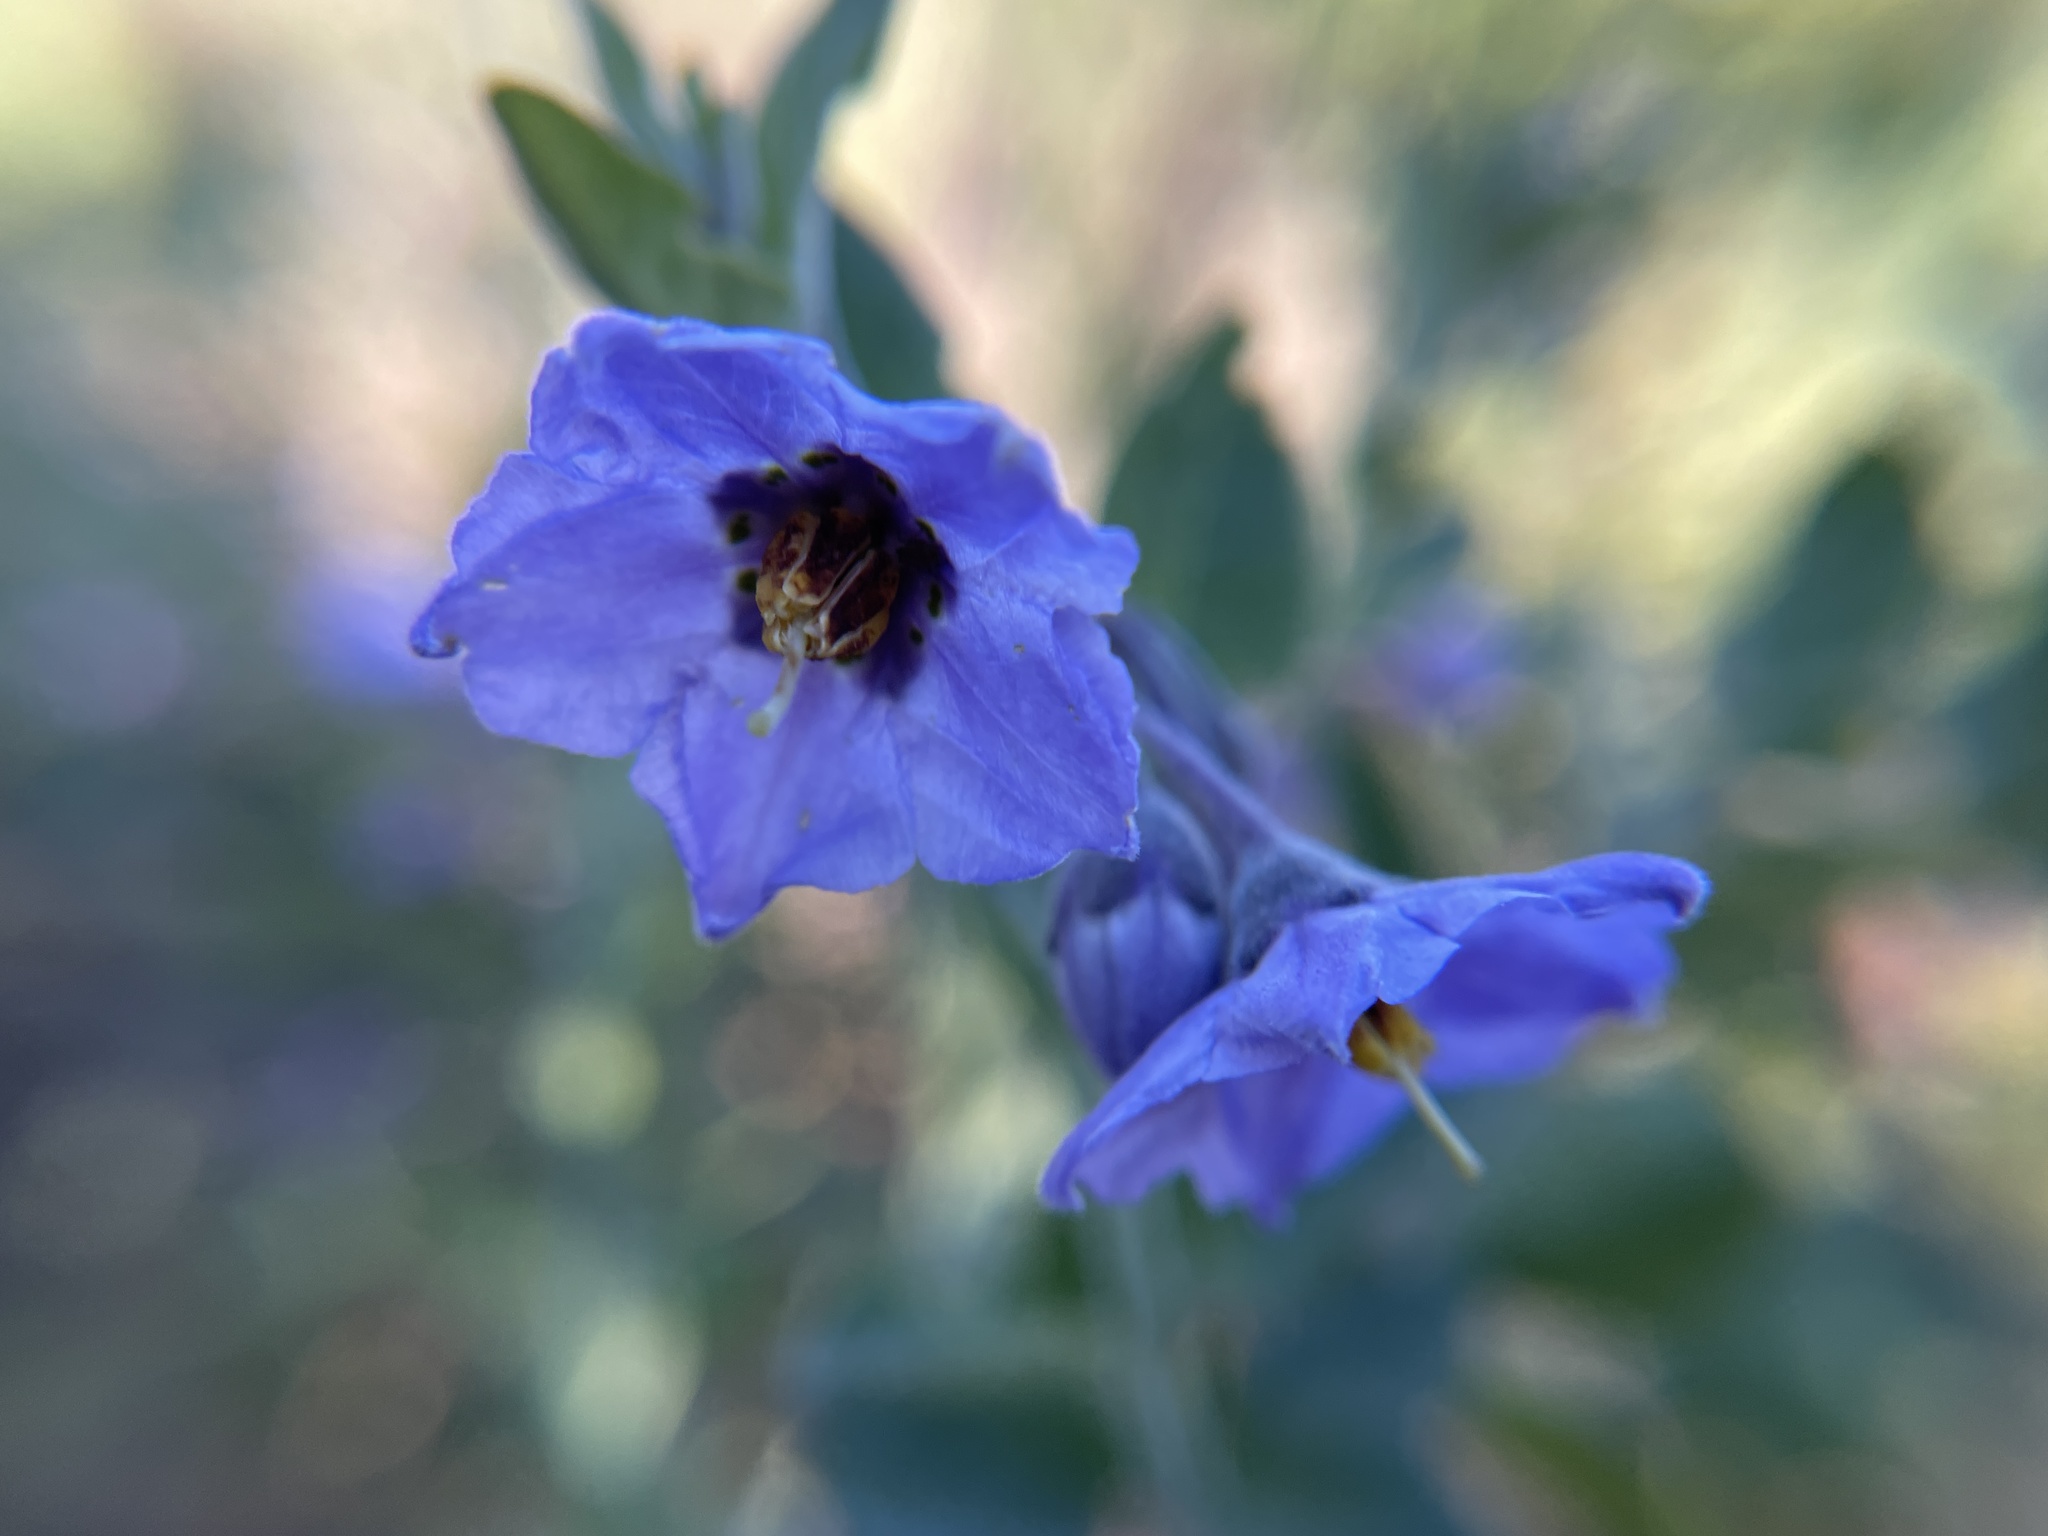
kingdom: Plantae
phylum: Tracheophyta
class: Magnoliopsida
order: Solanales
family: Solanaceae
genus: Solanum
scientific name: Solanum umbelliferum
